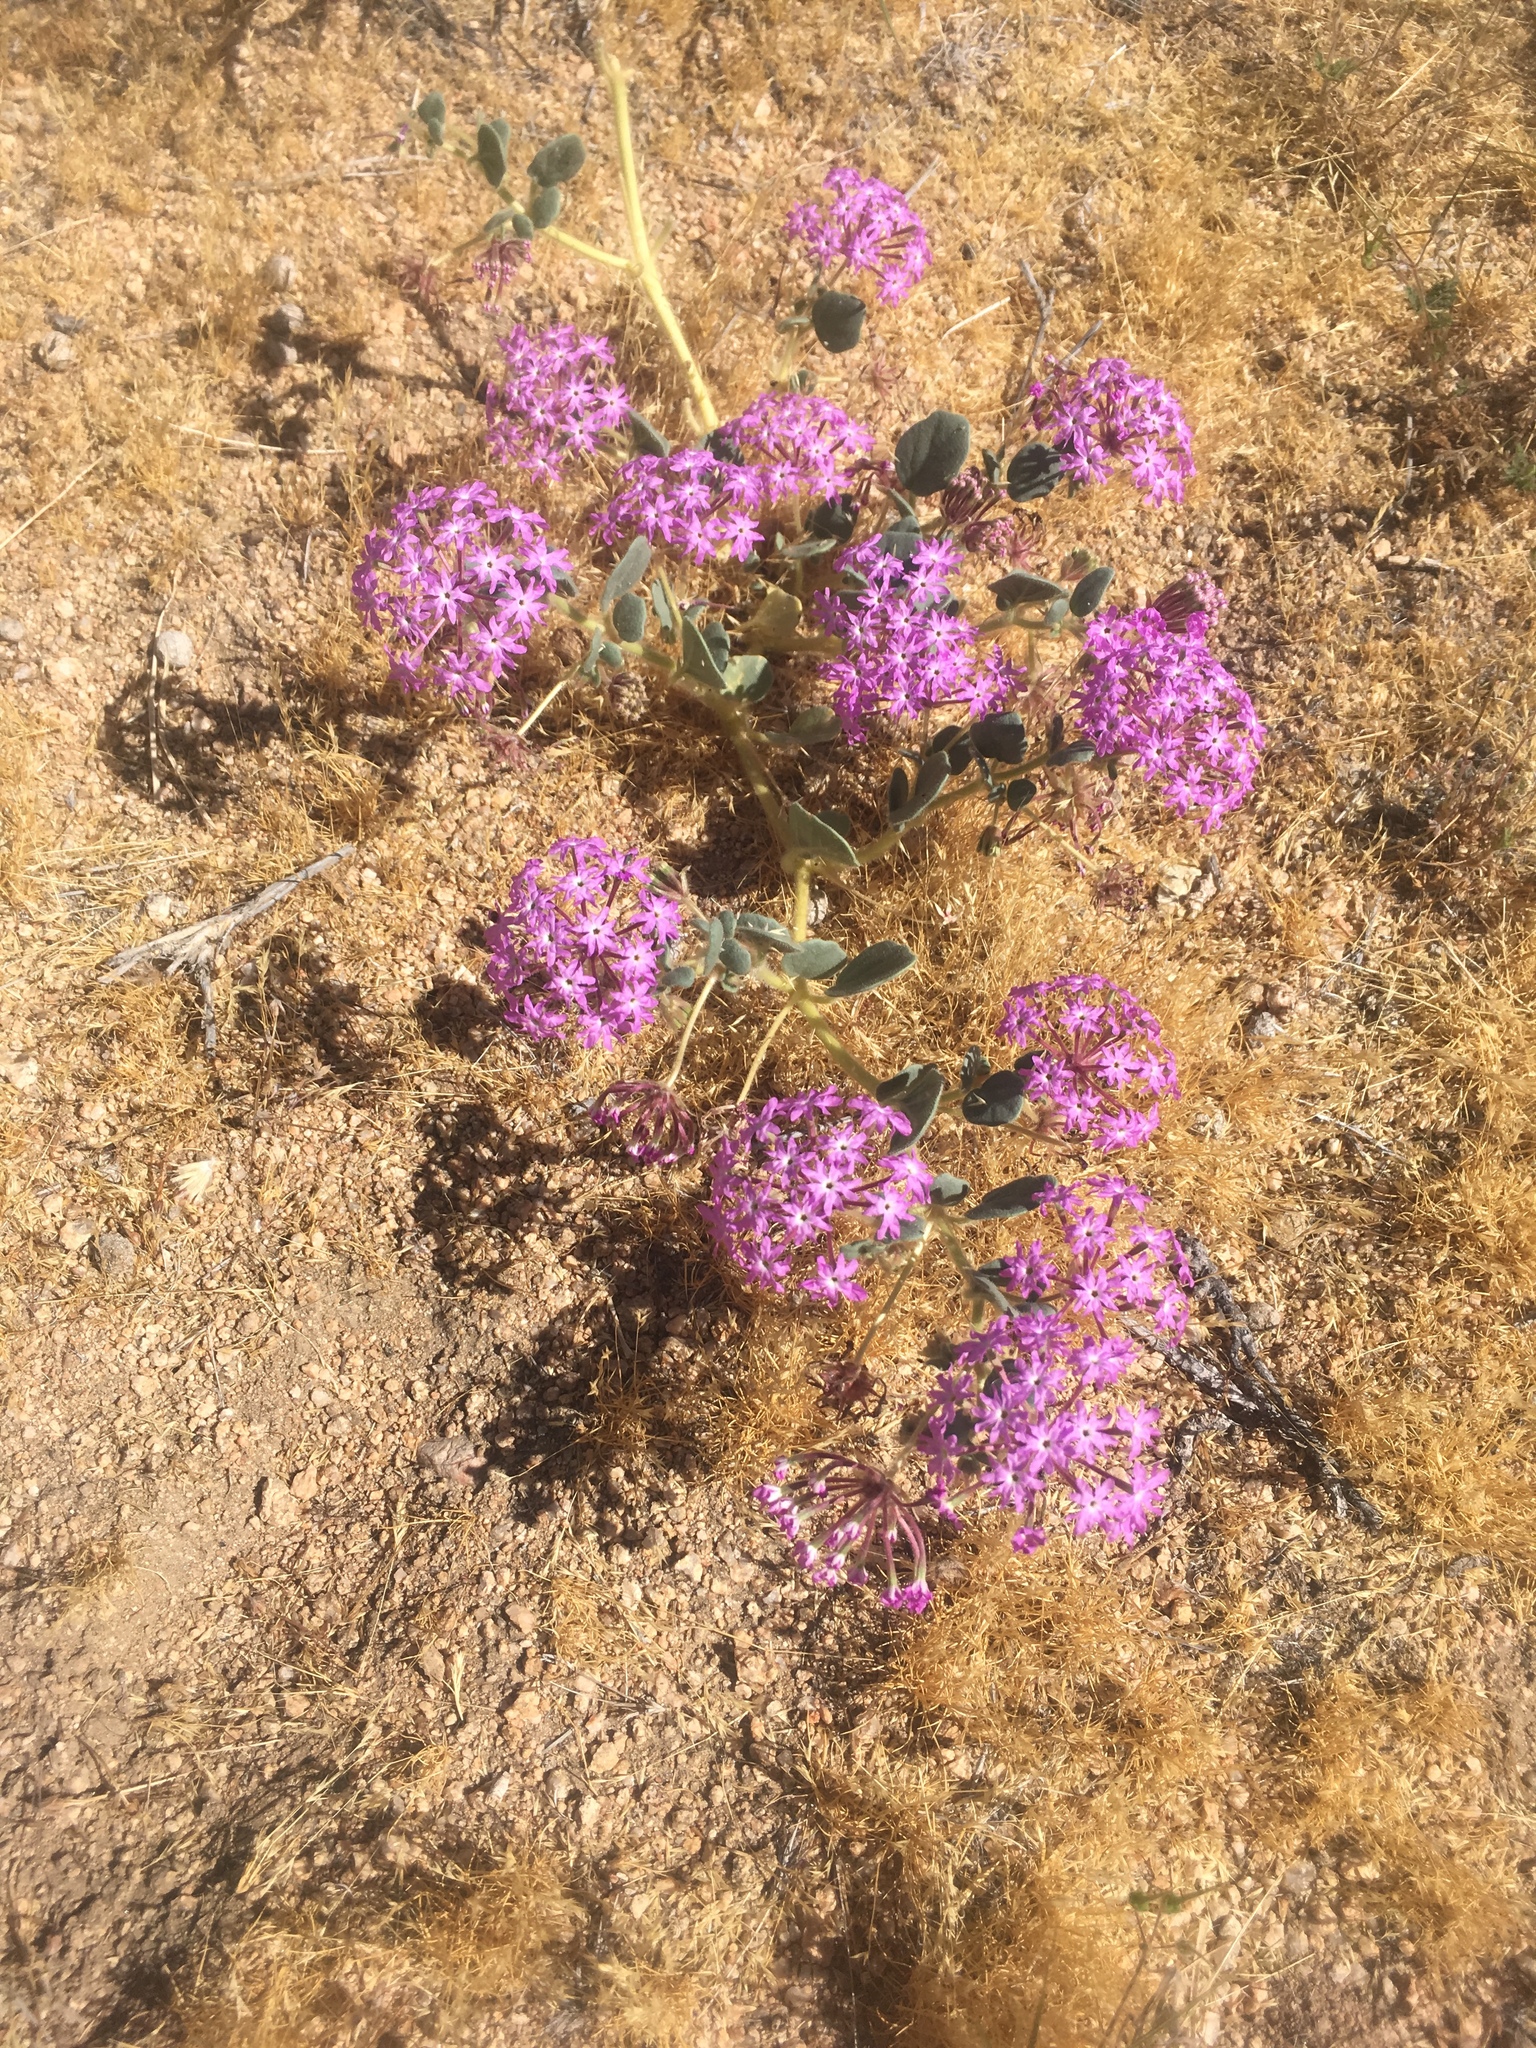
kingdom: Plantae
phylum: Tracheophyta
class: Magnoliopsida
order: Caryophyllales
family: Nyctaginaceae
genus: Abronia
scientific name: Abronia villosa
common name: Desert sand-verbena
